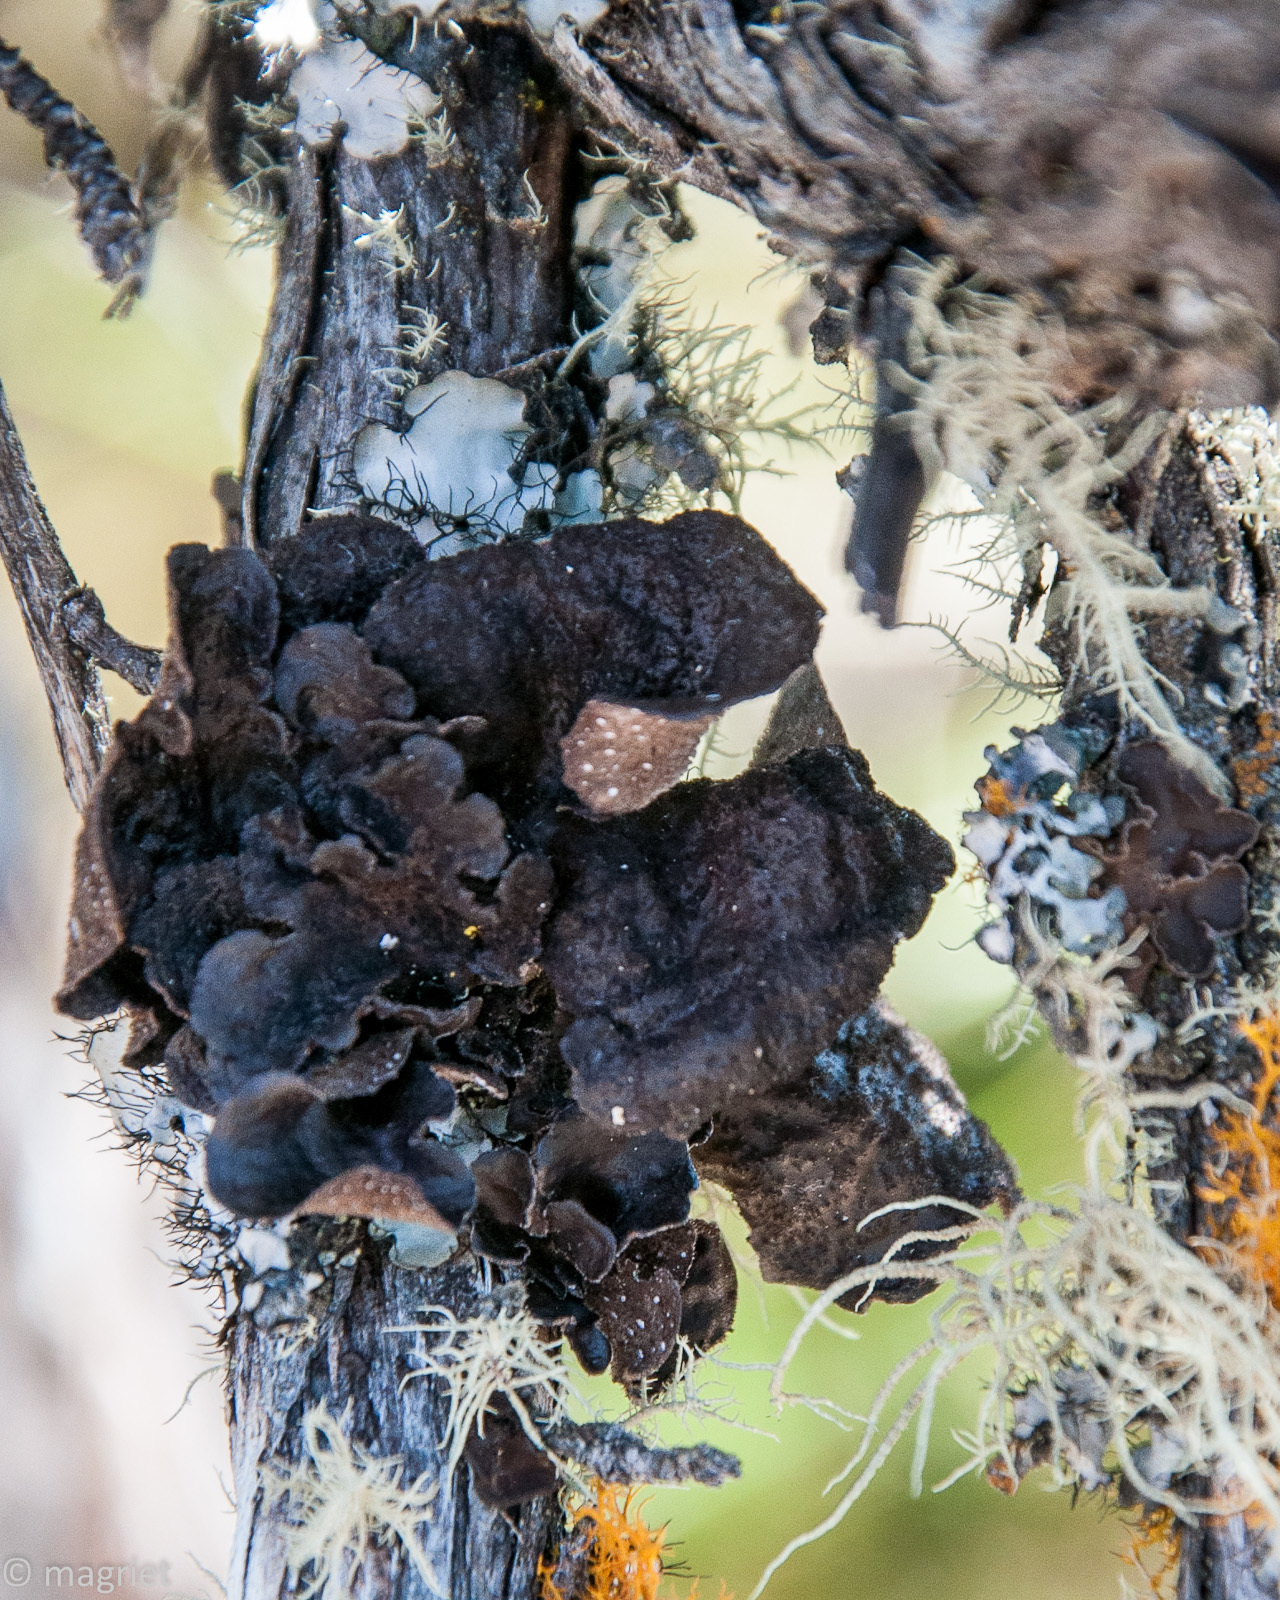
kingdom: Fungi
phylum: Ascomycota
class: Lecanoromycetes
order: Peltigerales
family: Lobariaceae
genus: Sticta
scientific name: Sticta fuliginosa
